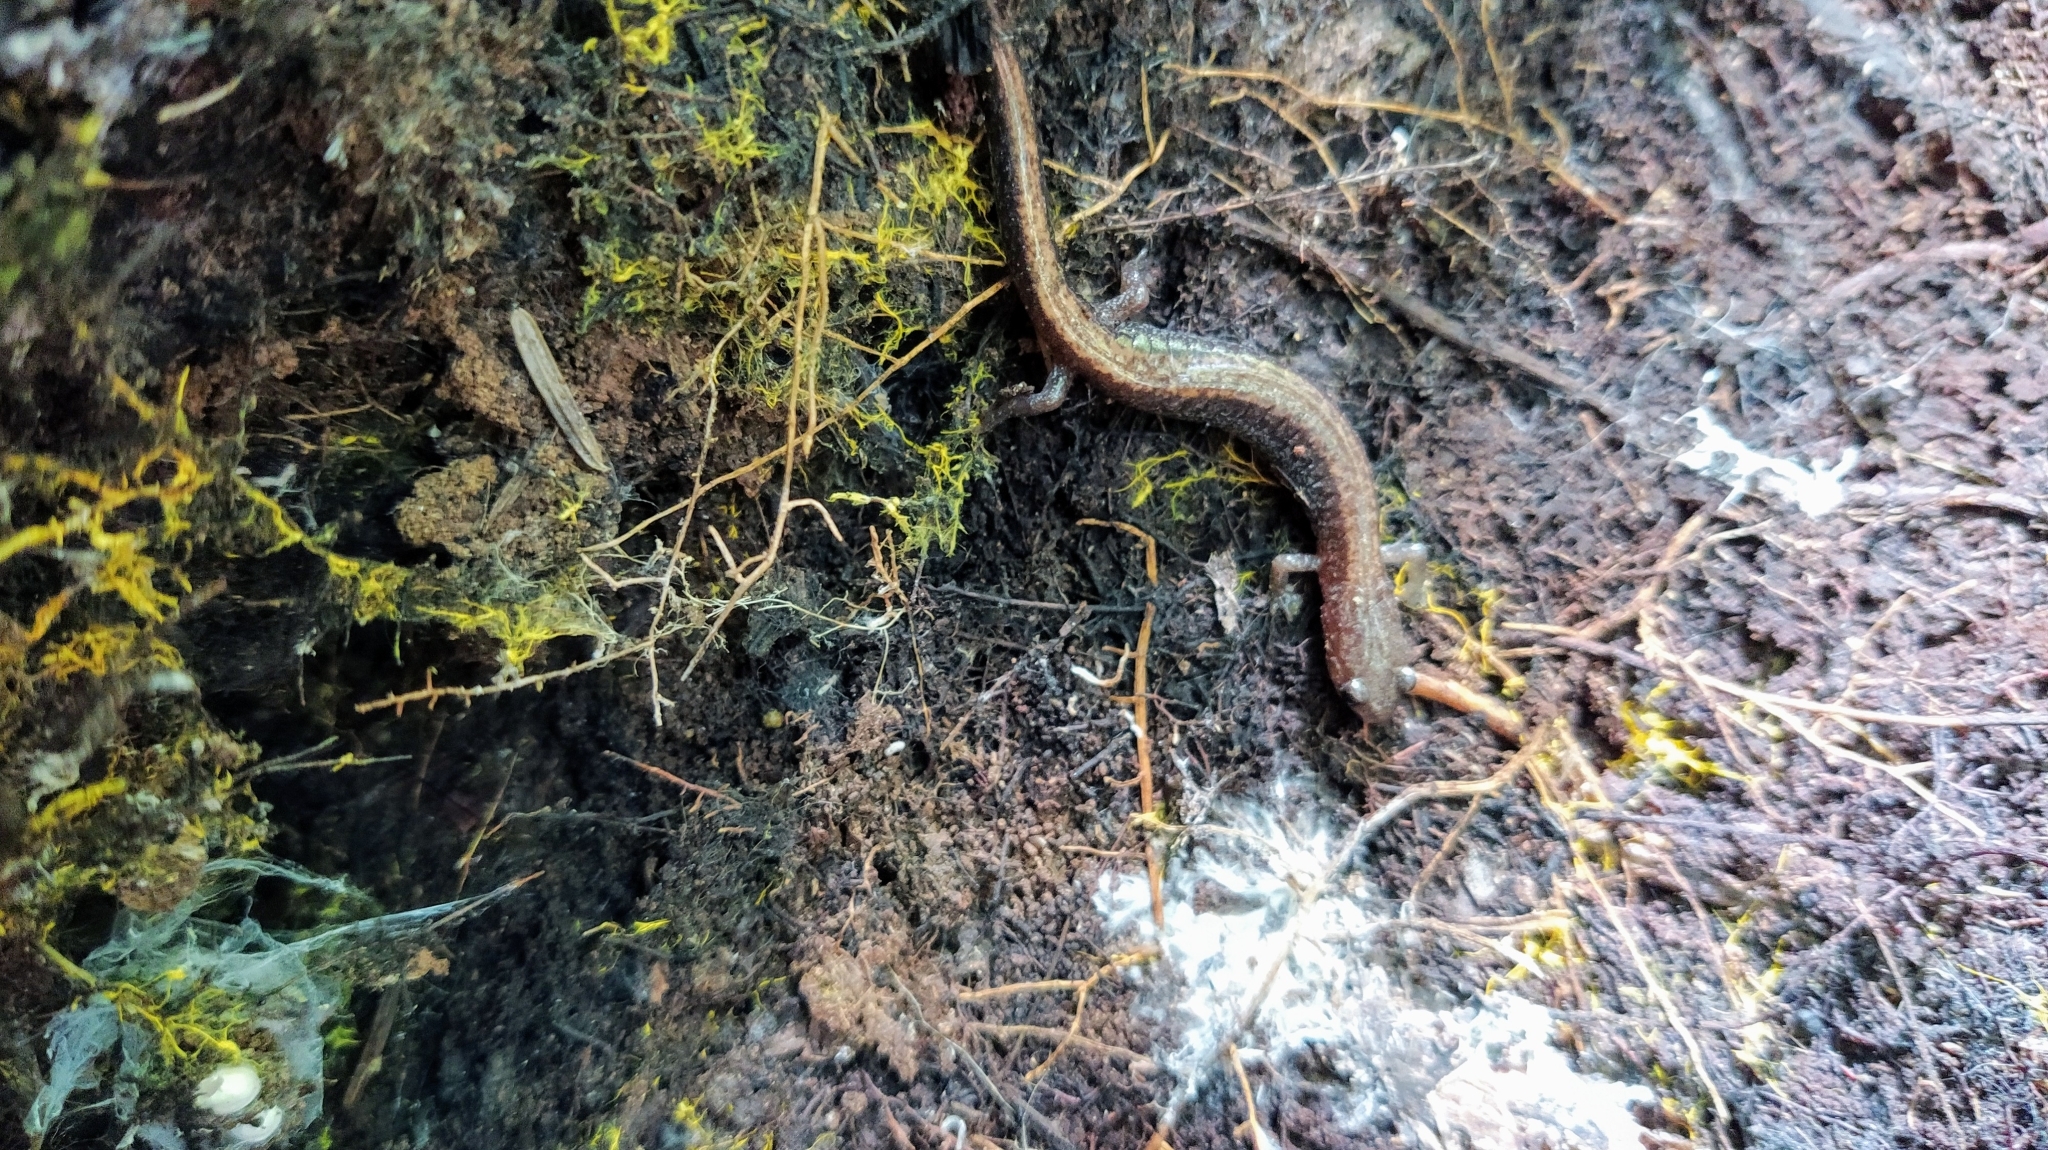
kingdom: Animalia
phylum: Chordata
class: Amphibia
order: Caudata
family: Plethodontidae
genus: Plethodon
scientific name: Plethodon cinereus
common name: Redback salamander
